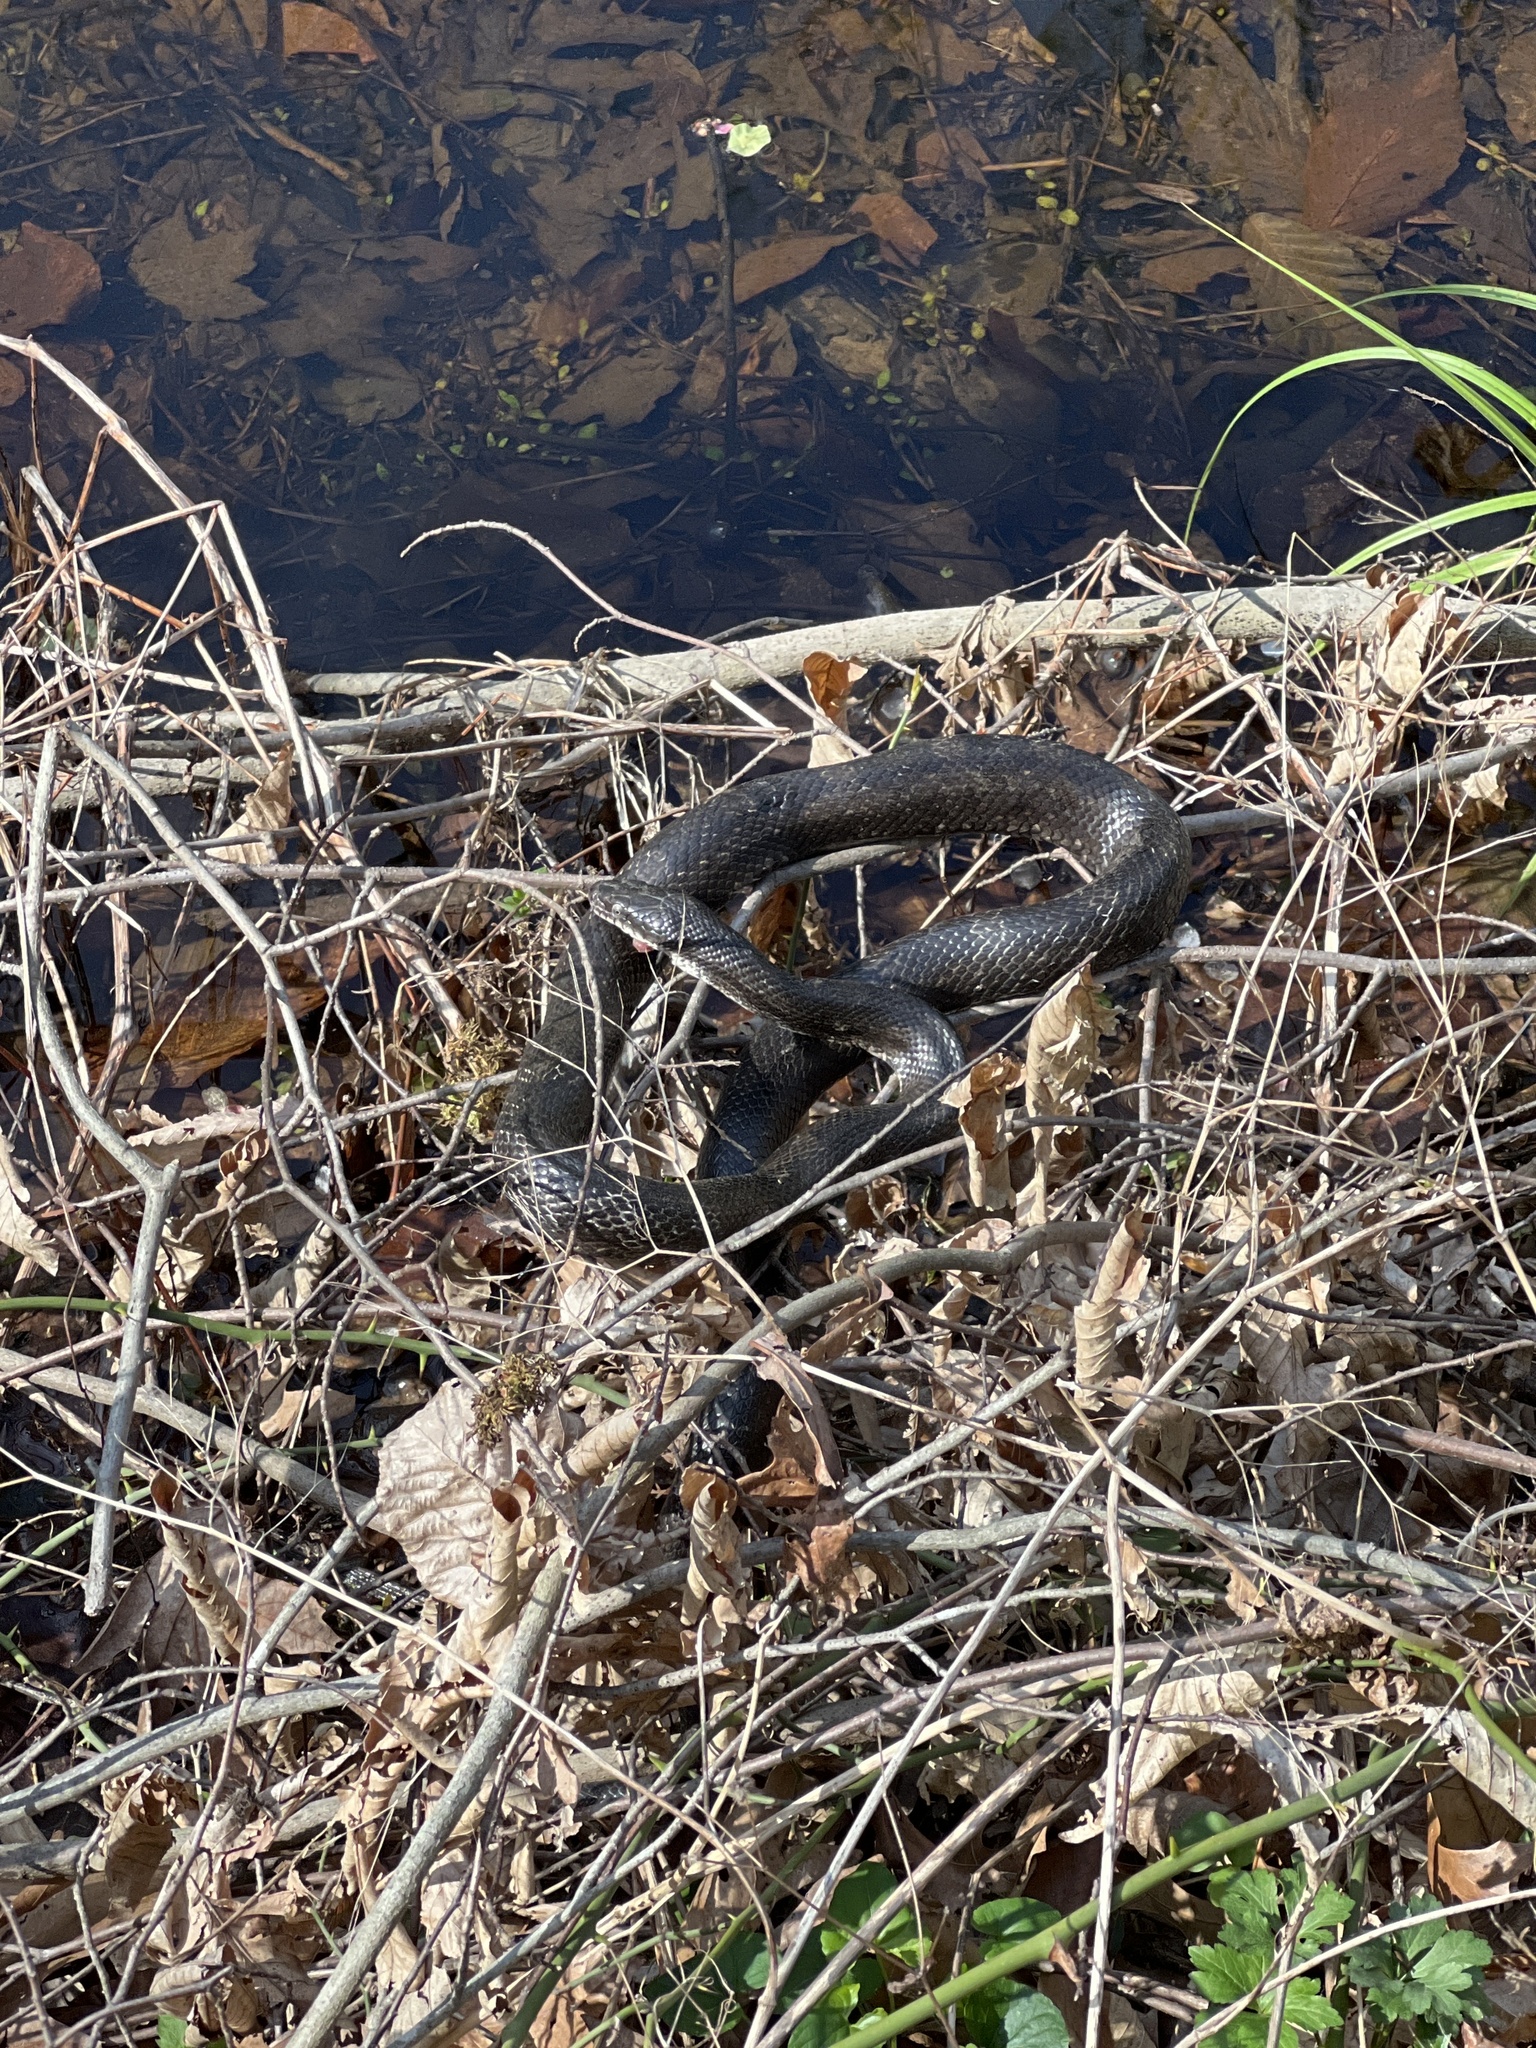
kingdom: Animalia
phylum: Chordata
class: Squamata
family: Colubridae
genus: Pantherophis
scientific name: Pantherophis alleghaniensis
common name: Eastern rat snake
